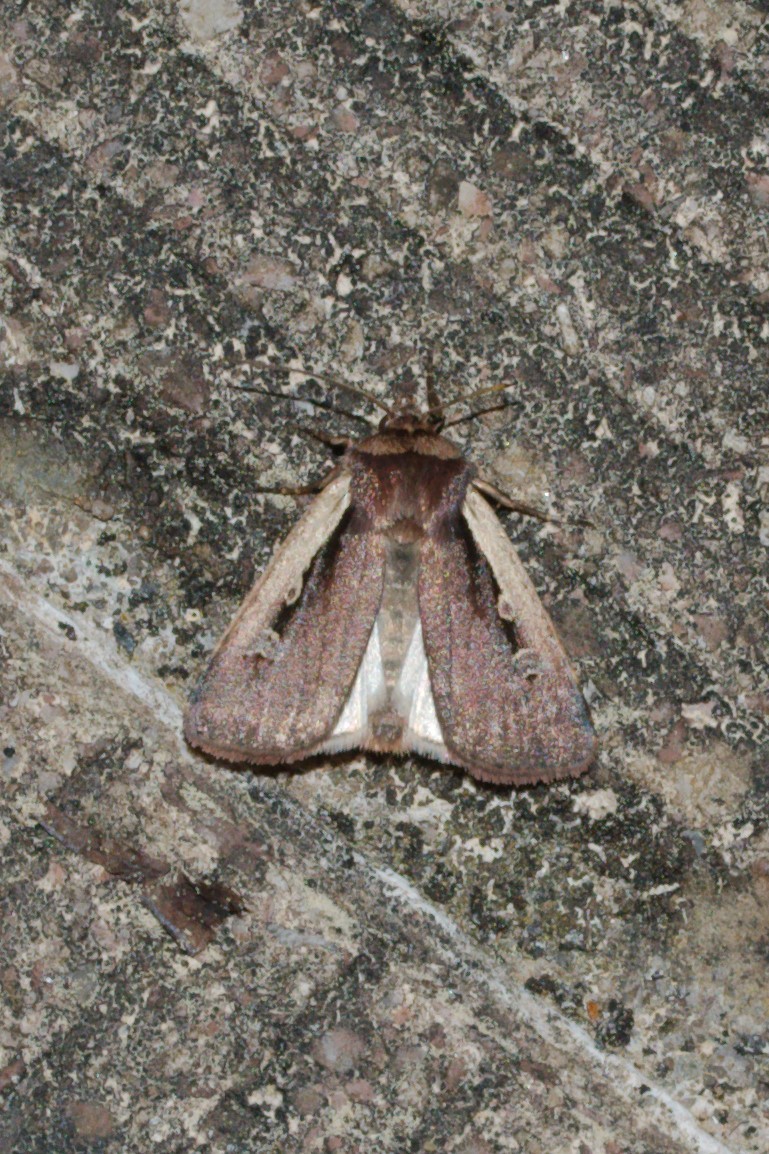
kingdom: Animalia
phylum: Arthropoda
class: Insecta
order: Lepidoptera
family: Noctuidae
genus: Ochropleura
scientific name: Ochropleura plecta
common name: Flame shoulder
